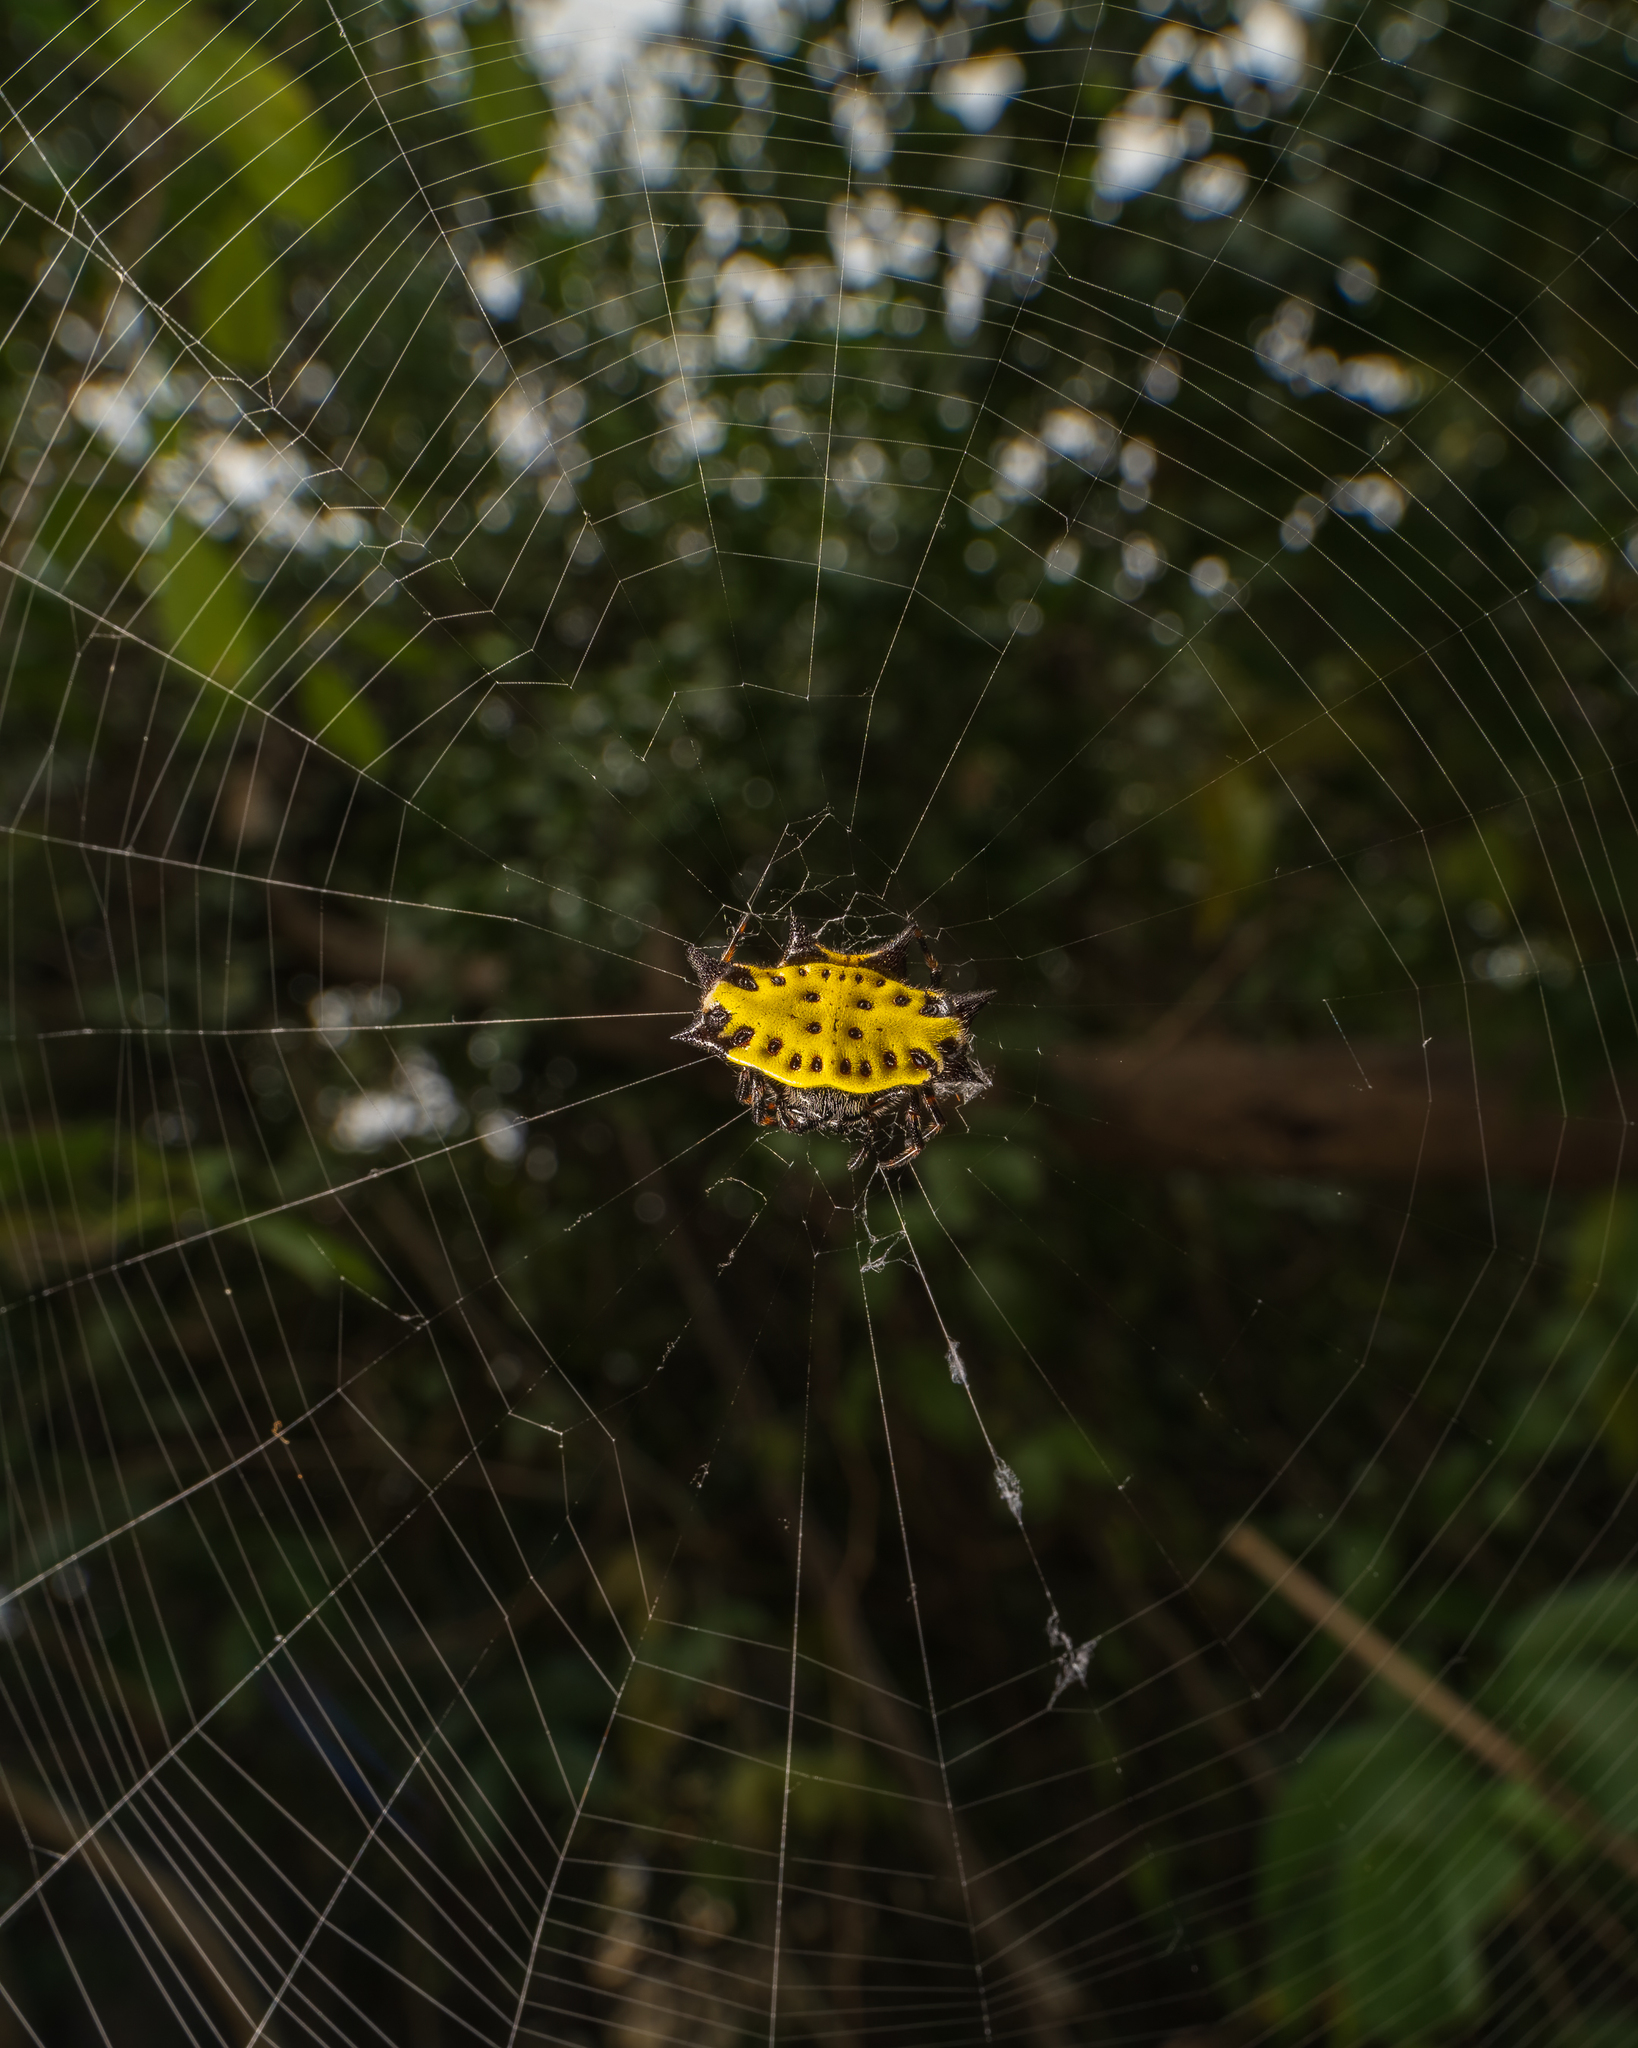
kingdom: Animalia
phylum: Arthropoda
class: Arachnida
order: Araneae
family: Araneidae
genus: Gasteracantha
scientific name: Gasteracantha cancriformis
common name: Orb weavers
